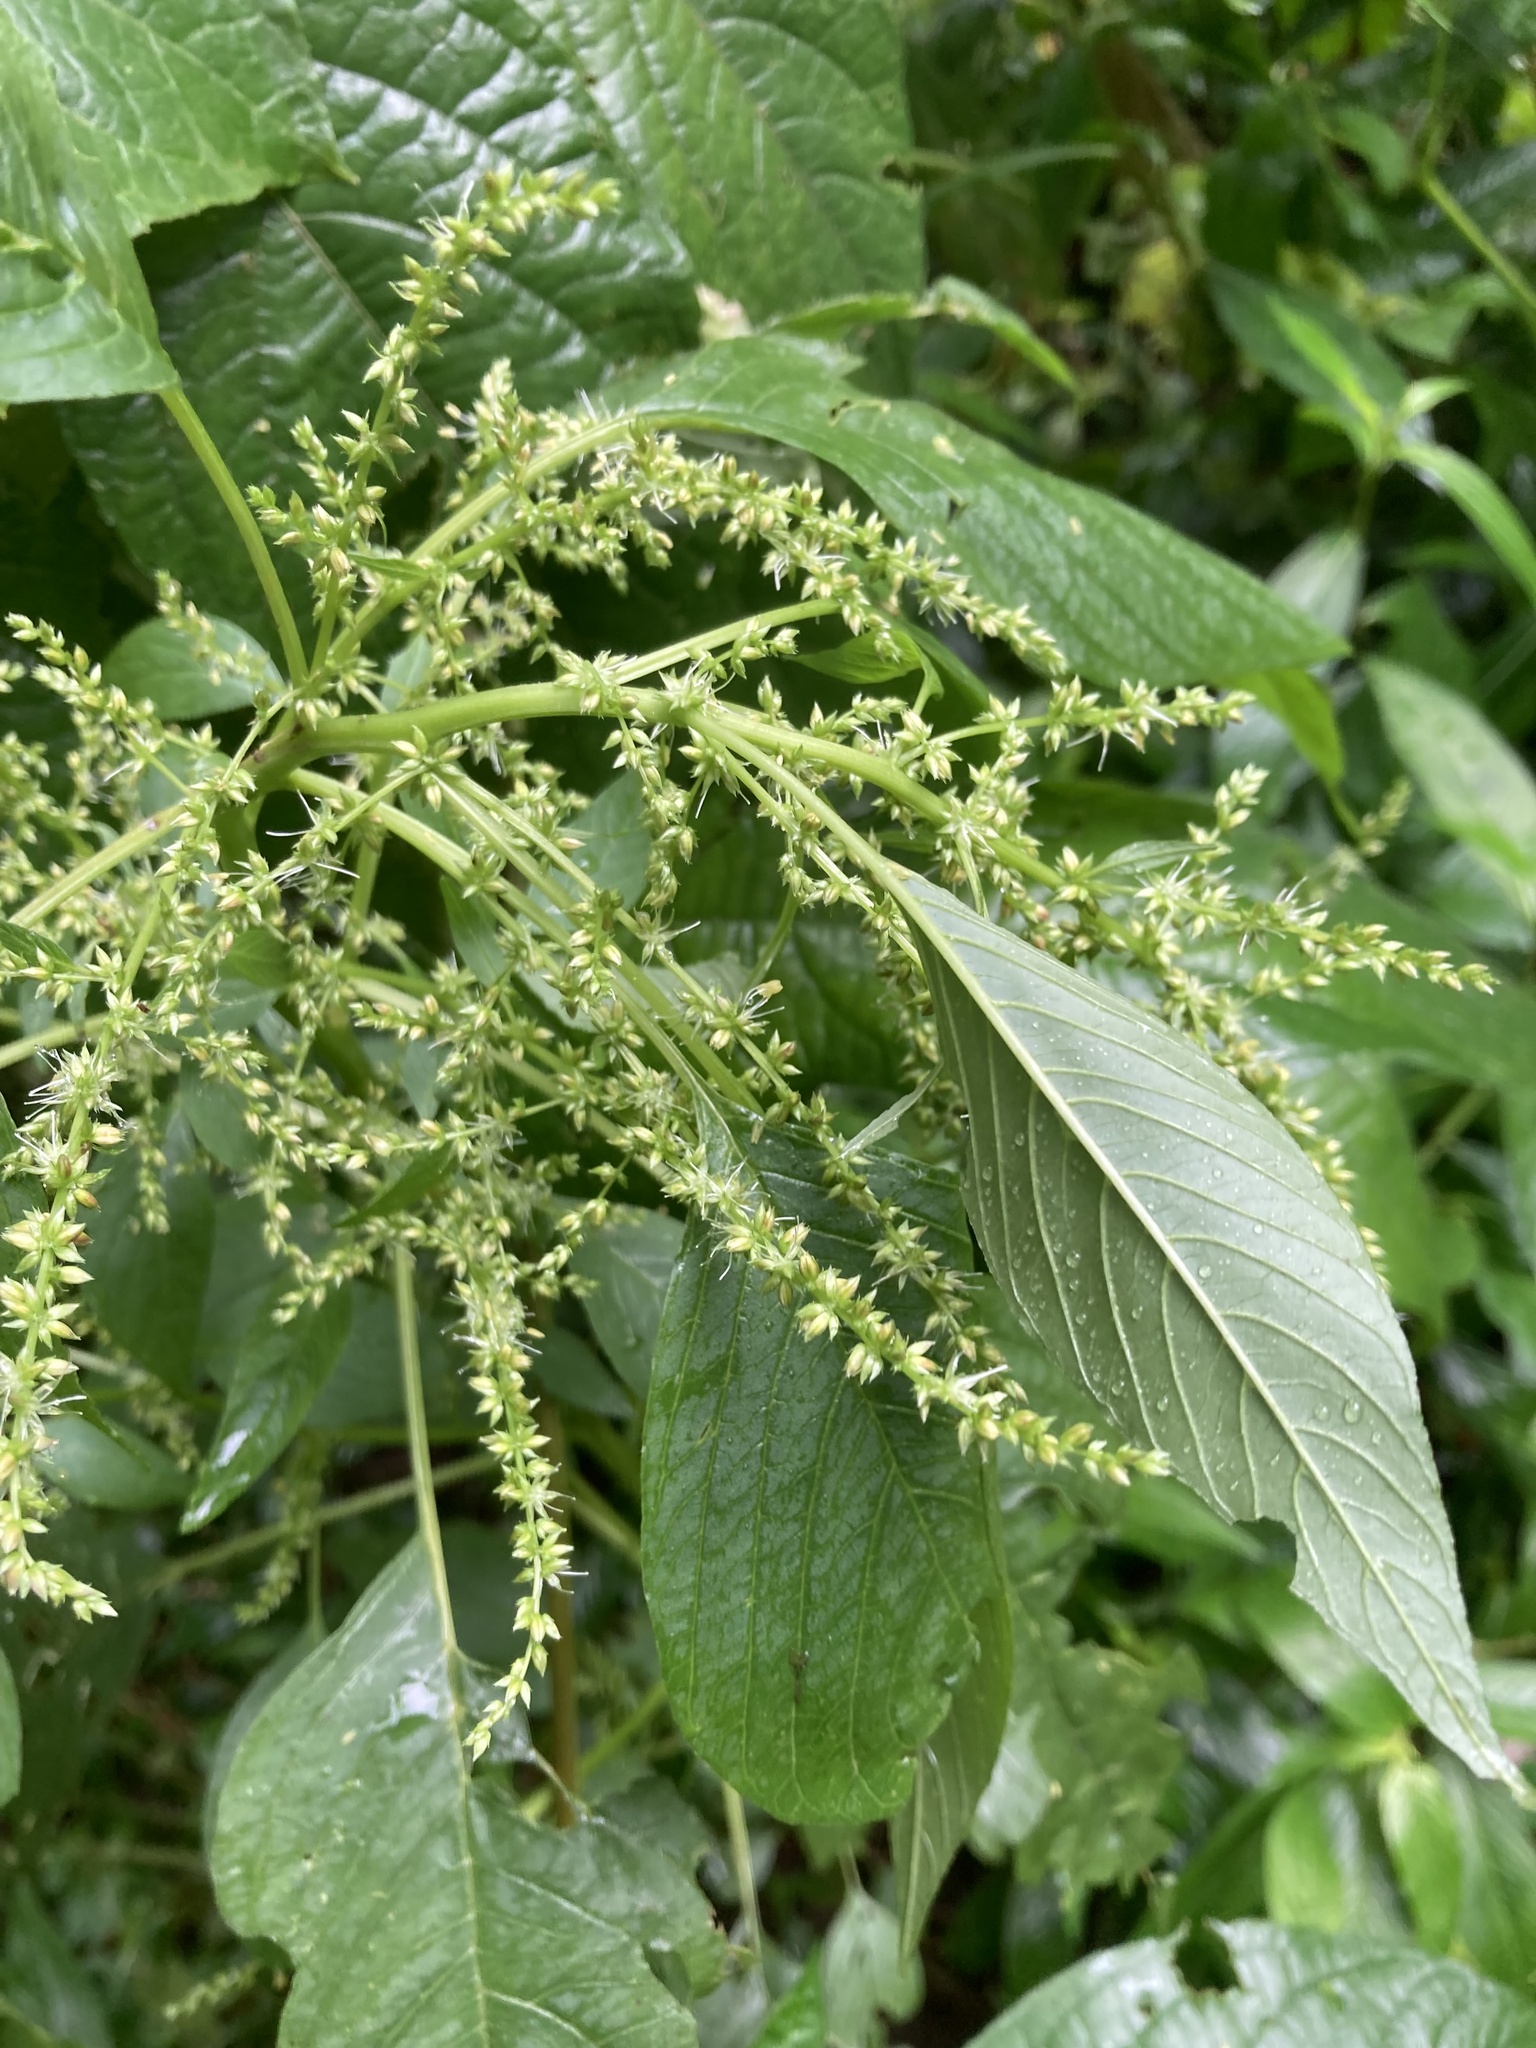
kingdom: Plantae
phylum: Tracheophyta
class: Magnoliopsida
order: Rosales
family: Urticaceae
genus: Laportea
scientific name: Laportea canadensis
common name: Canada nettle
